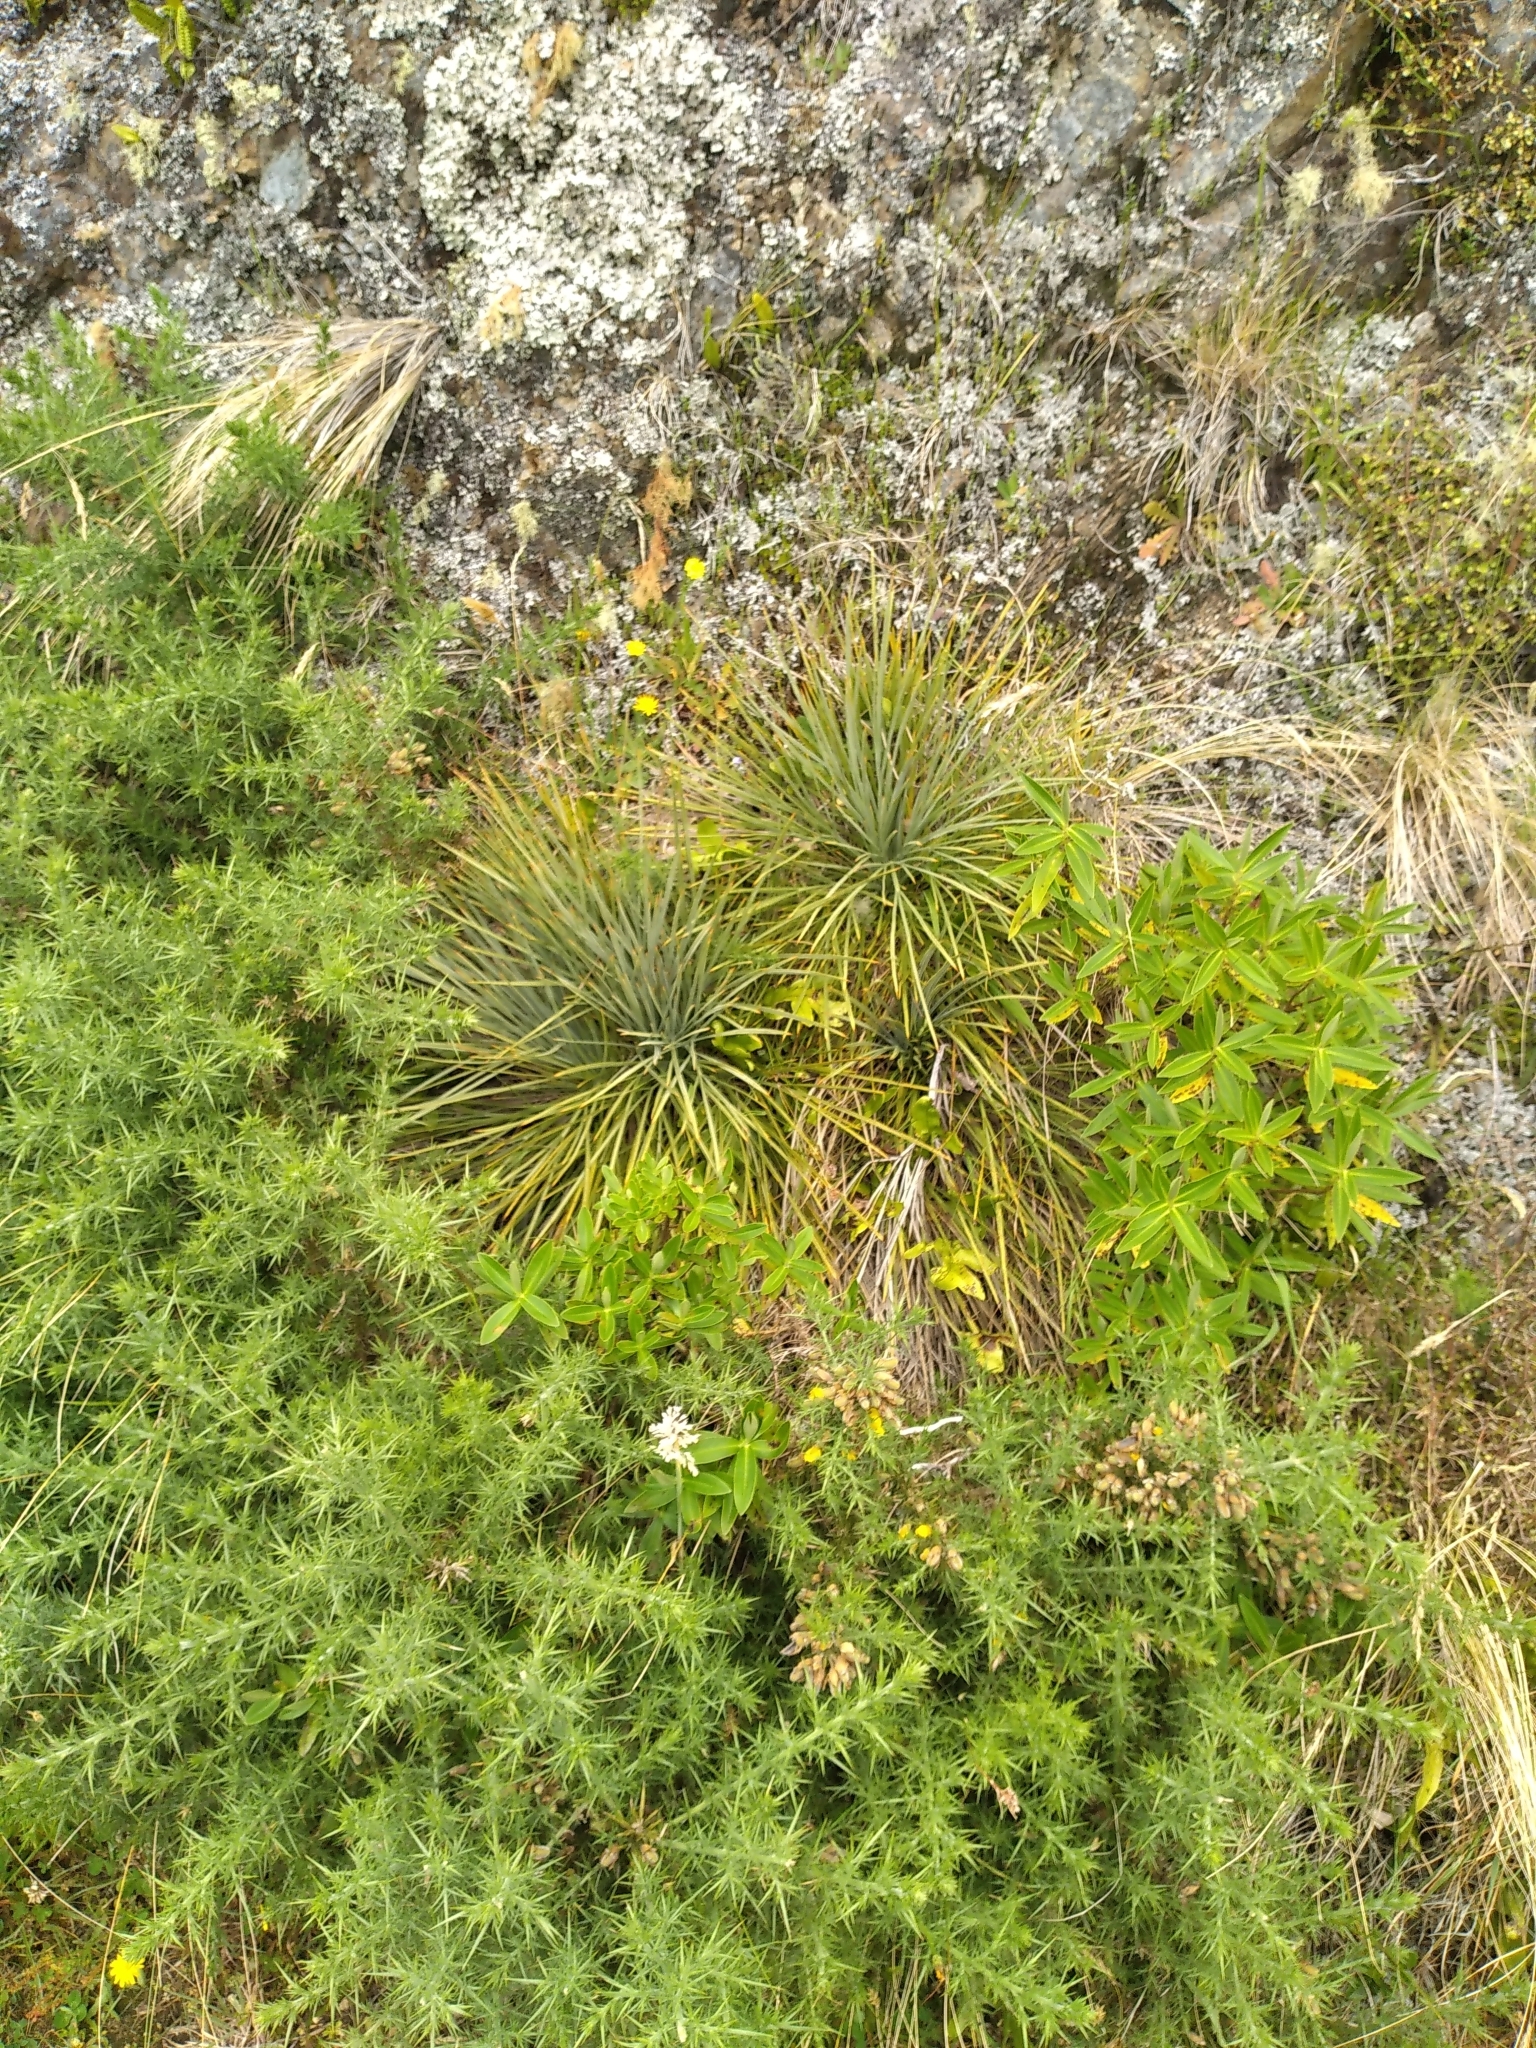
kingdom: Plantae
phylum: Tracheophyta
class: Magnoliopsida
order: Apiales
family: Apiaceae
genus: Aciphylla
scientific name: Aciphylla squarrosa
